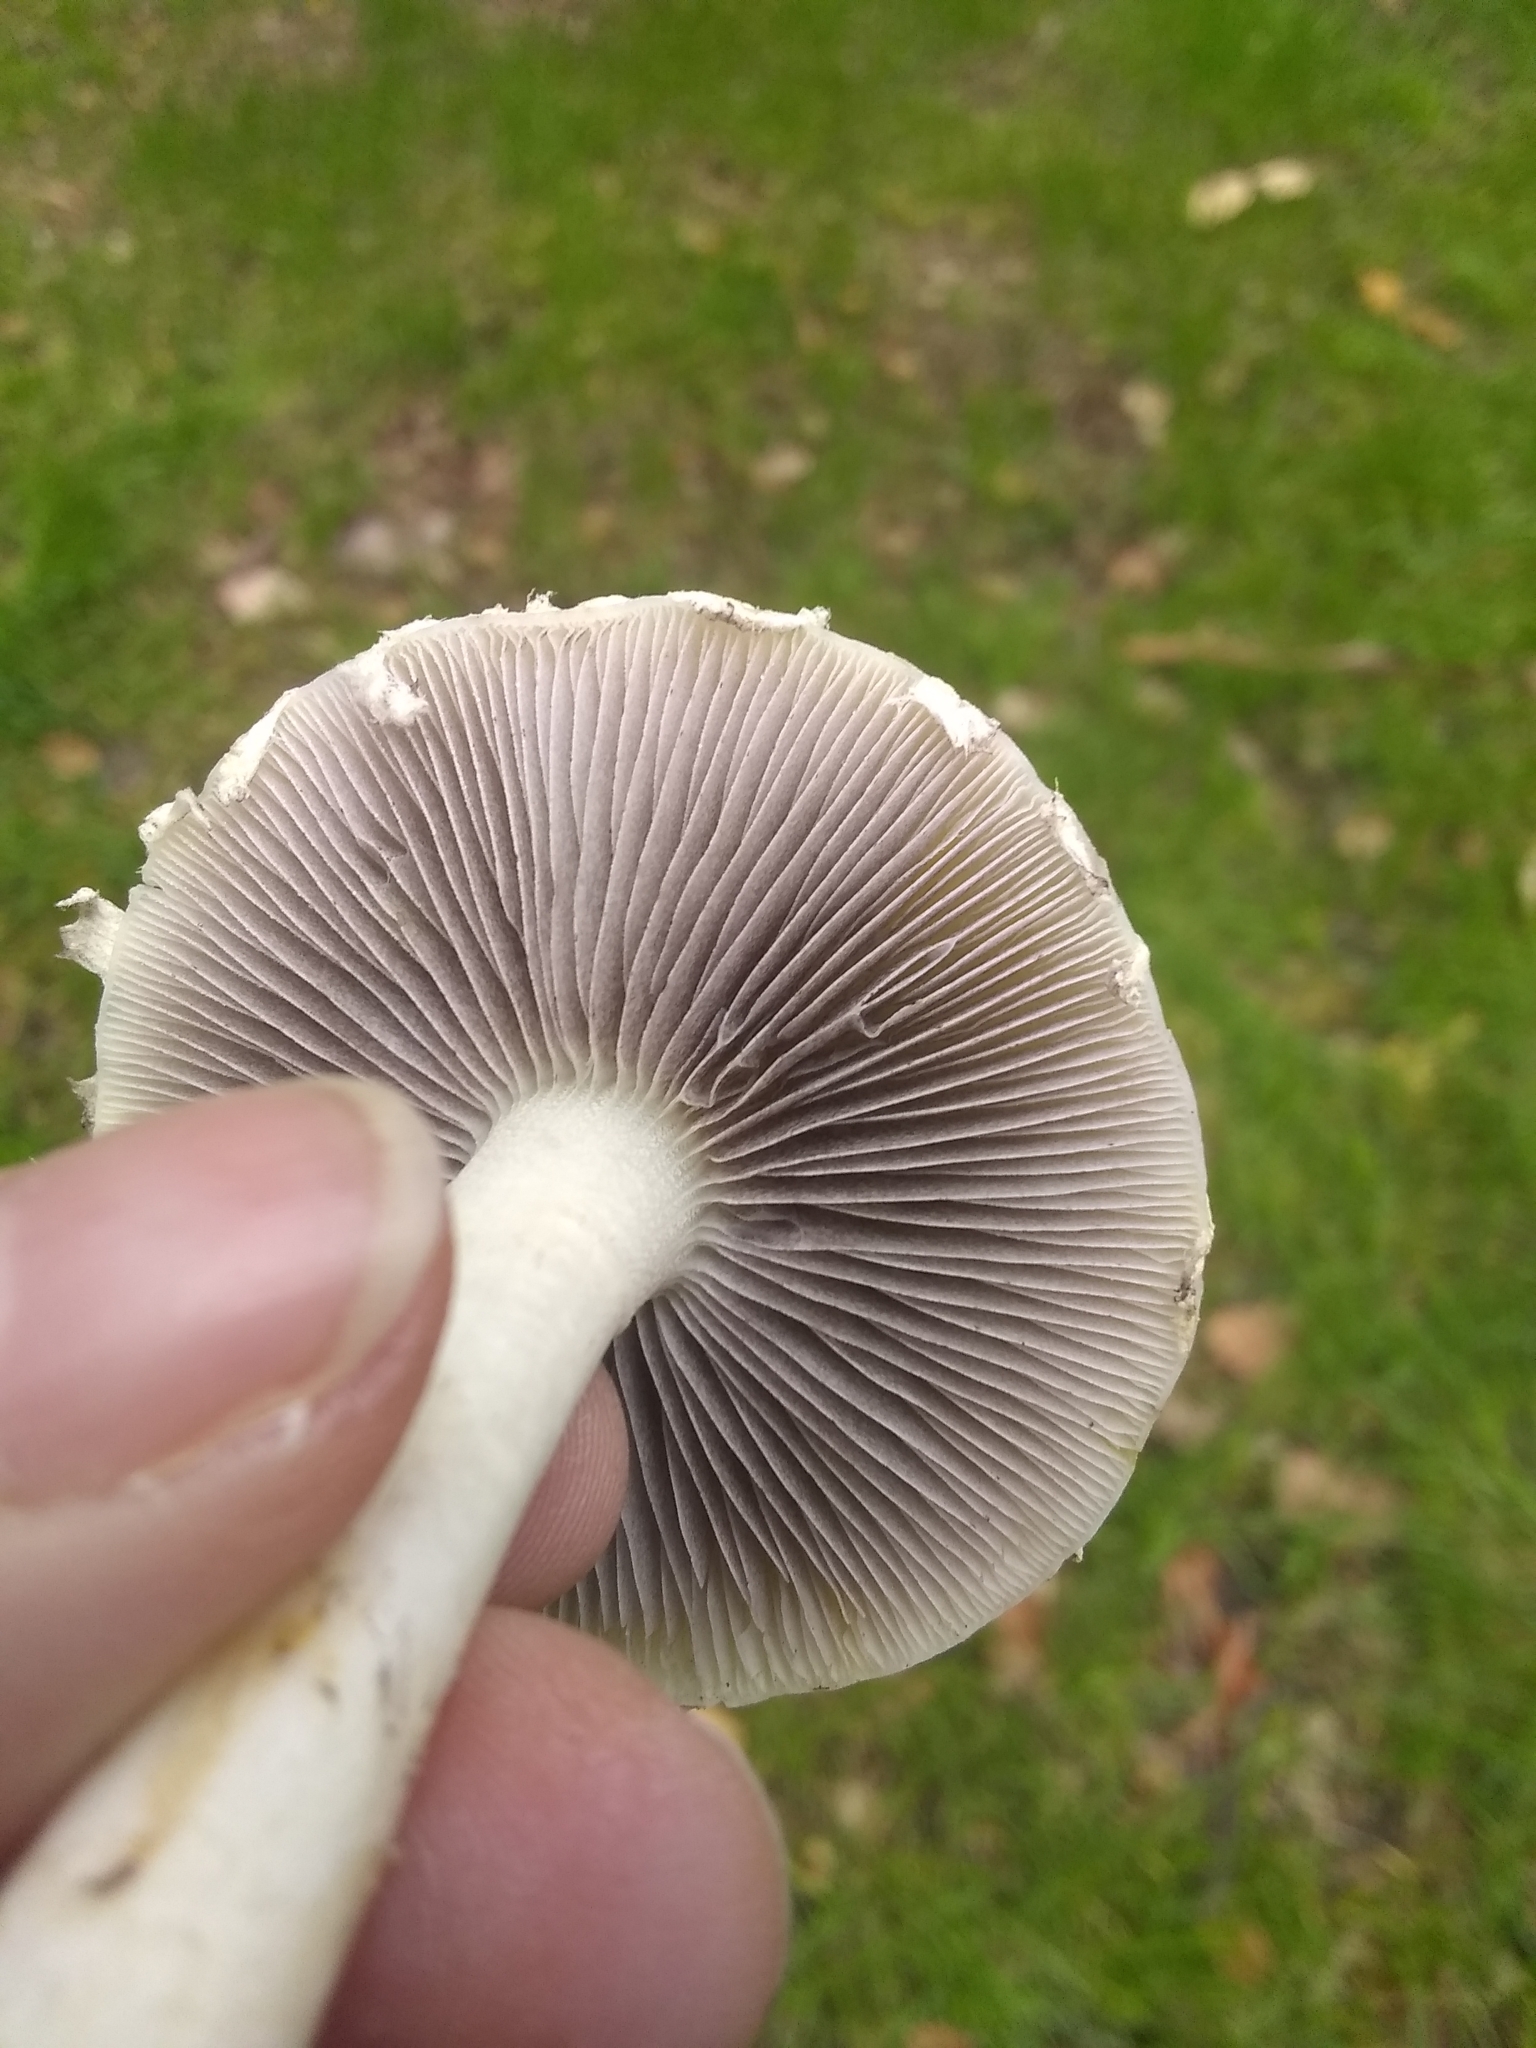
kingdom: Fungi
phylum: Basidiomycota
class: Agaricomycetes
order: Agaricales
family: Strophariaceae
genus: Leratiomyces
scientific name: Leratiomyces percevalii
